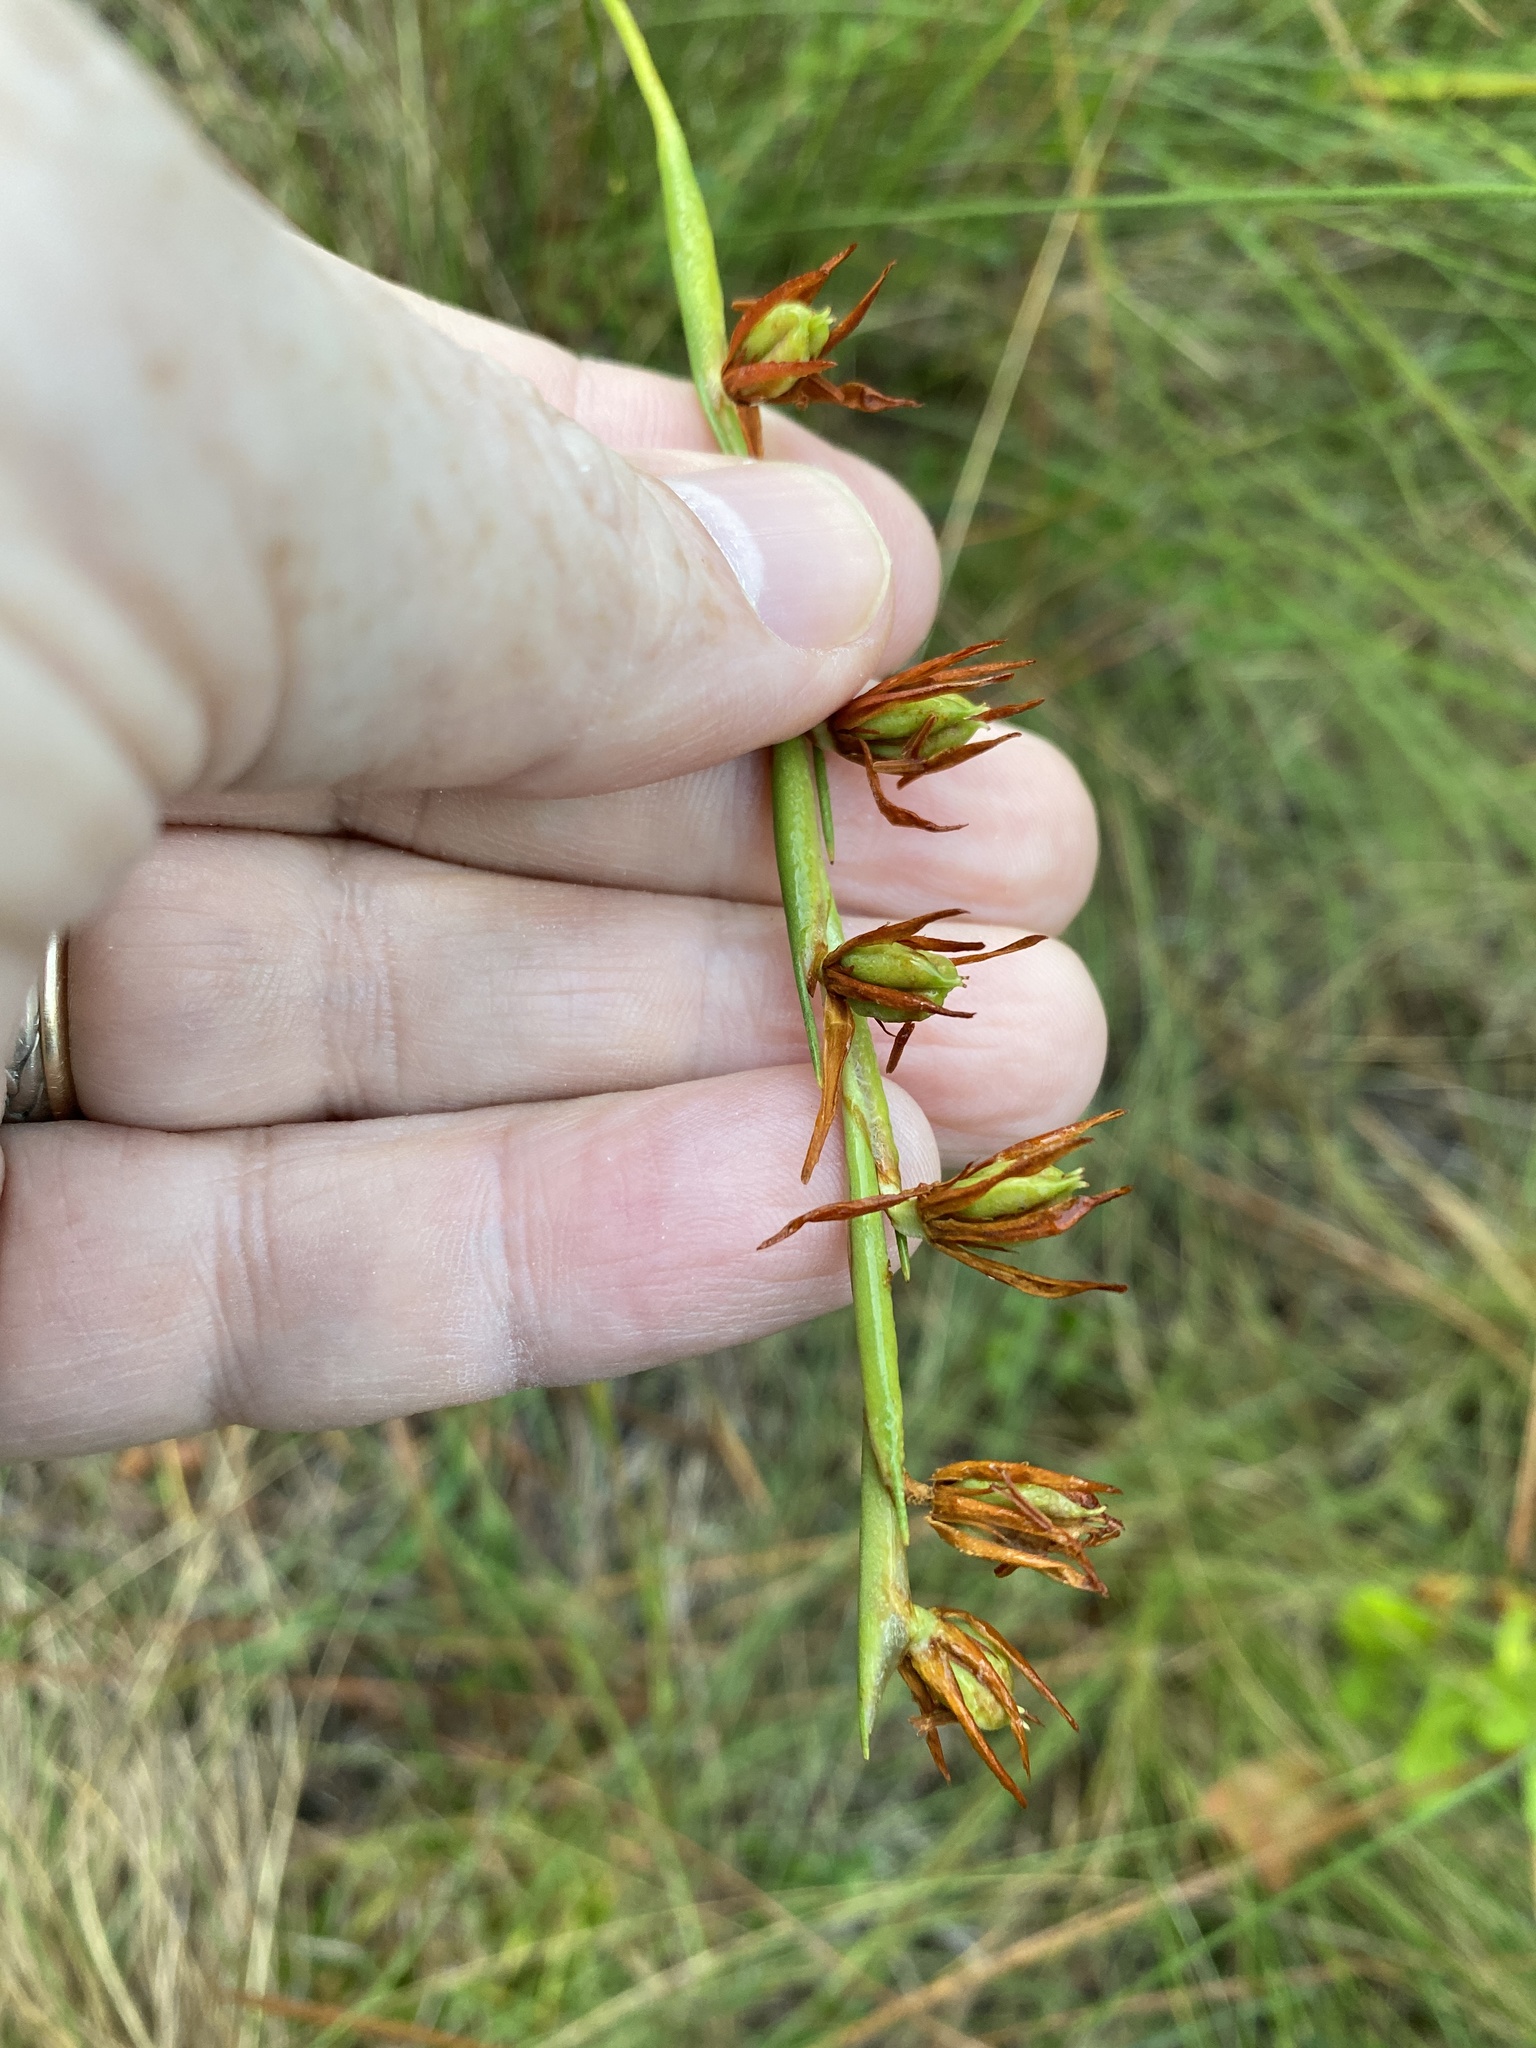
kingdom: Plantae
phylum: Tracheophyta
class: Liliopsida
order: Alismatales
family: Tofieldiaceae
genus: Pleea
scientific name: Pleea tenuifolia
